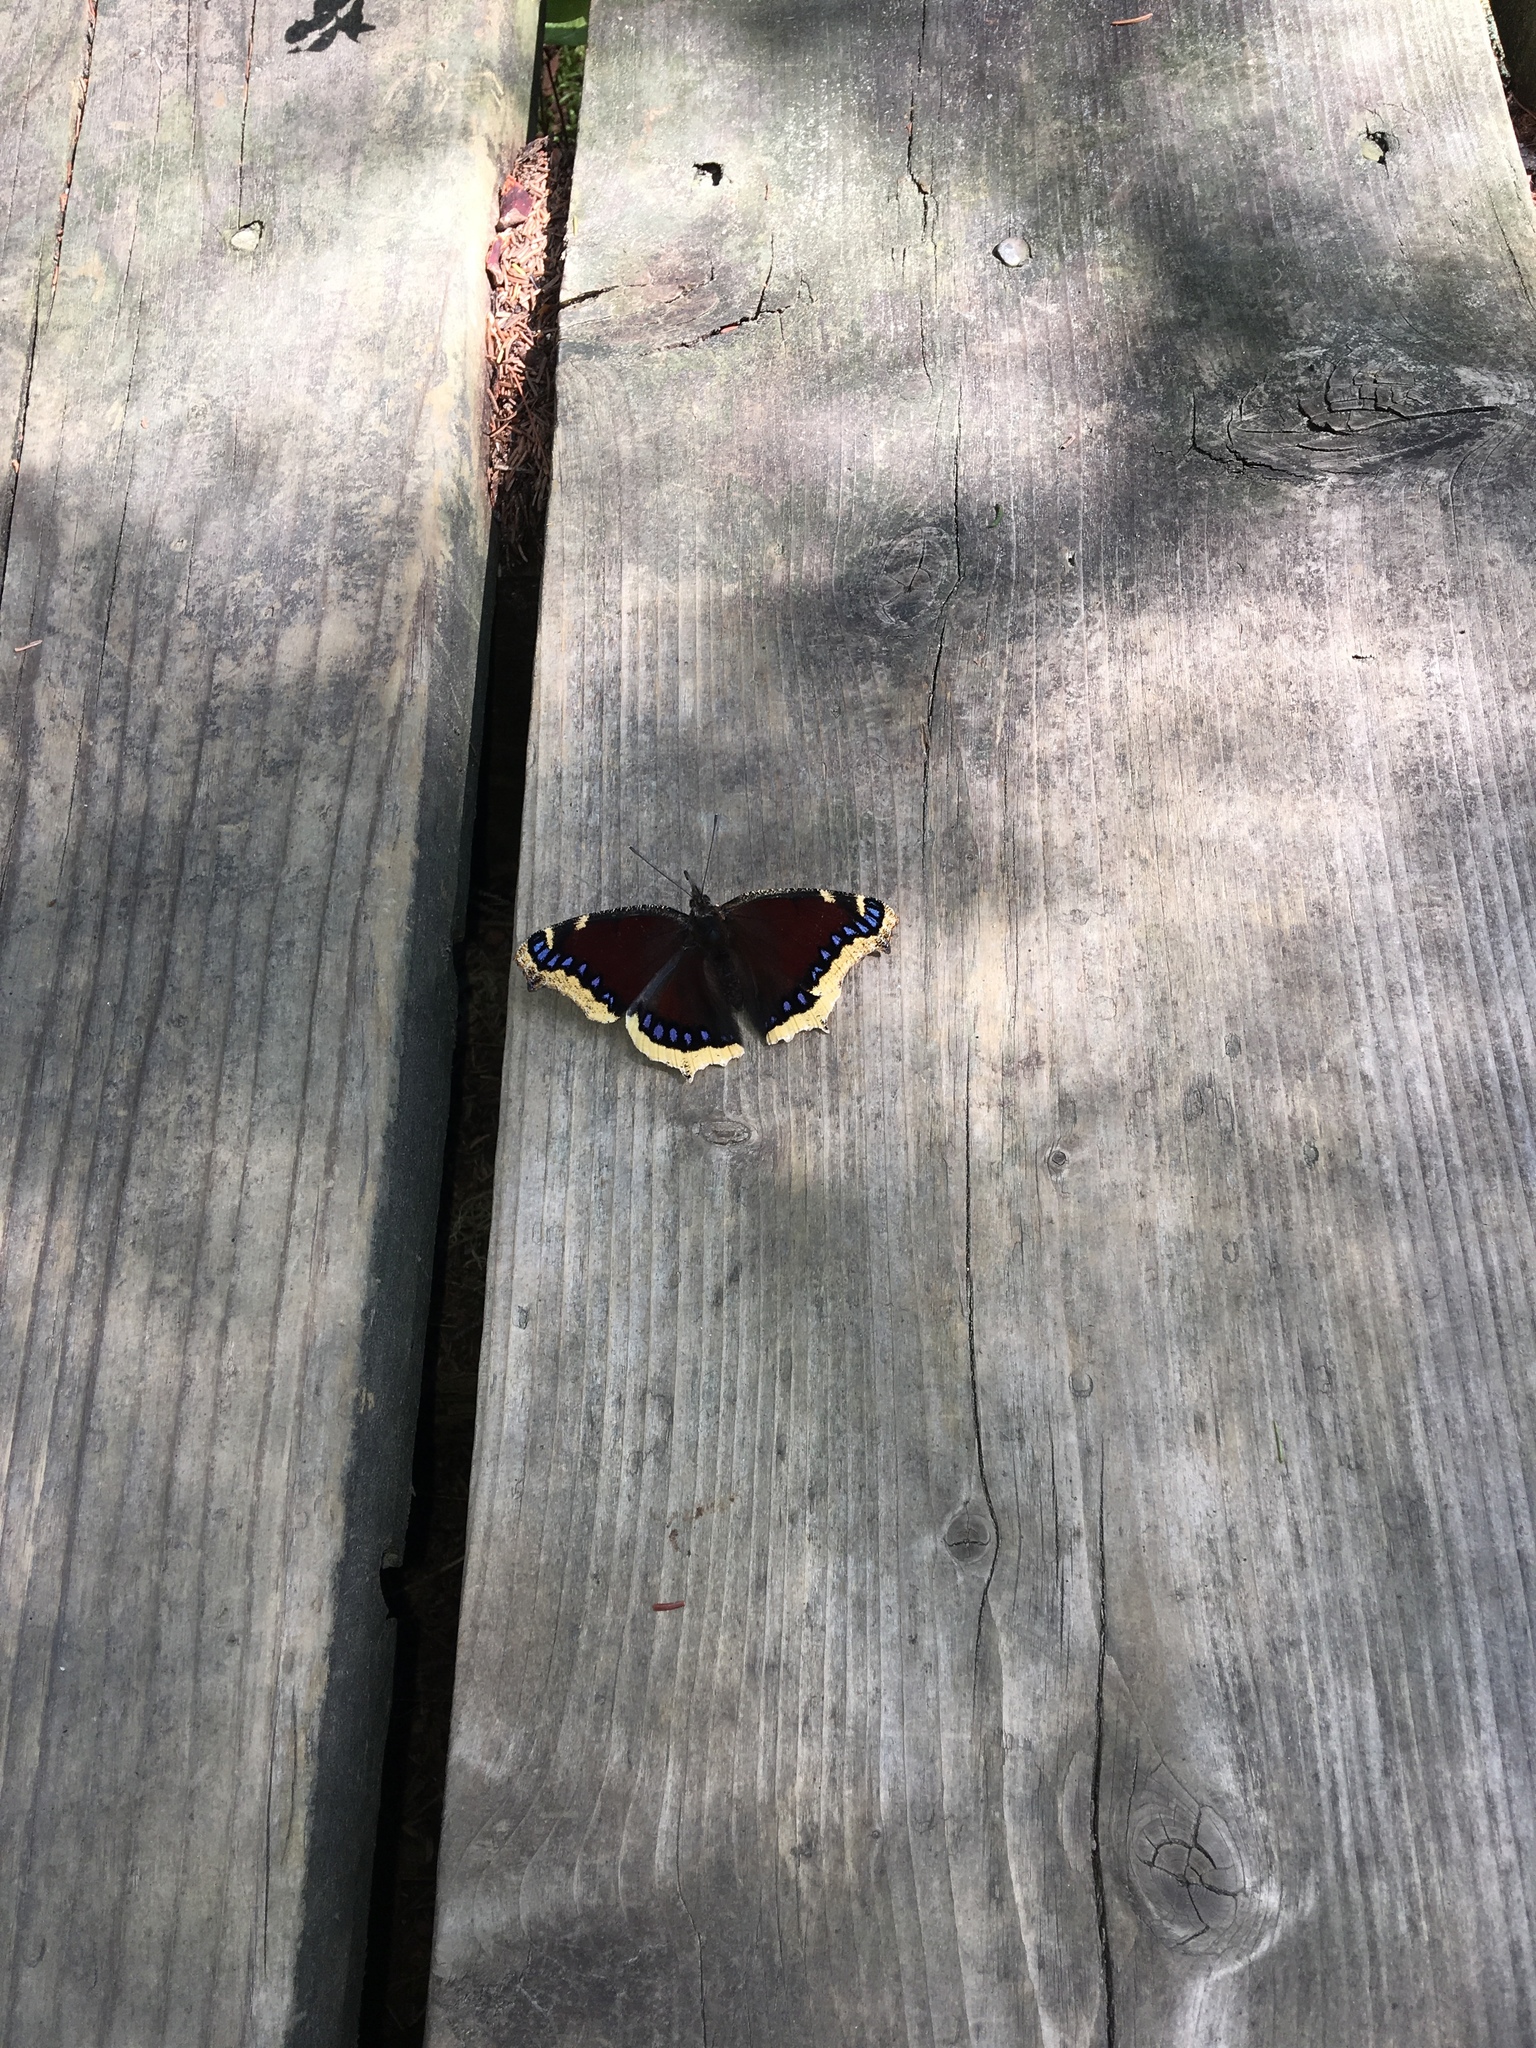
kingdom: Animalia
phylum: Arthropoda
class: Insecta
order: Lepidoptera
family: Nymphalidae
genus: Nymphalis
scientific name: Nymphalis antiopa
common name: Camberwell beauty
